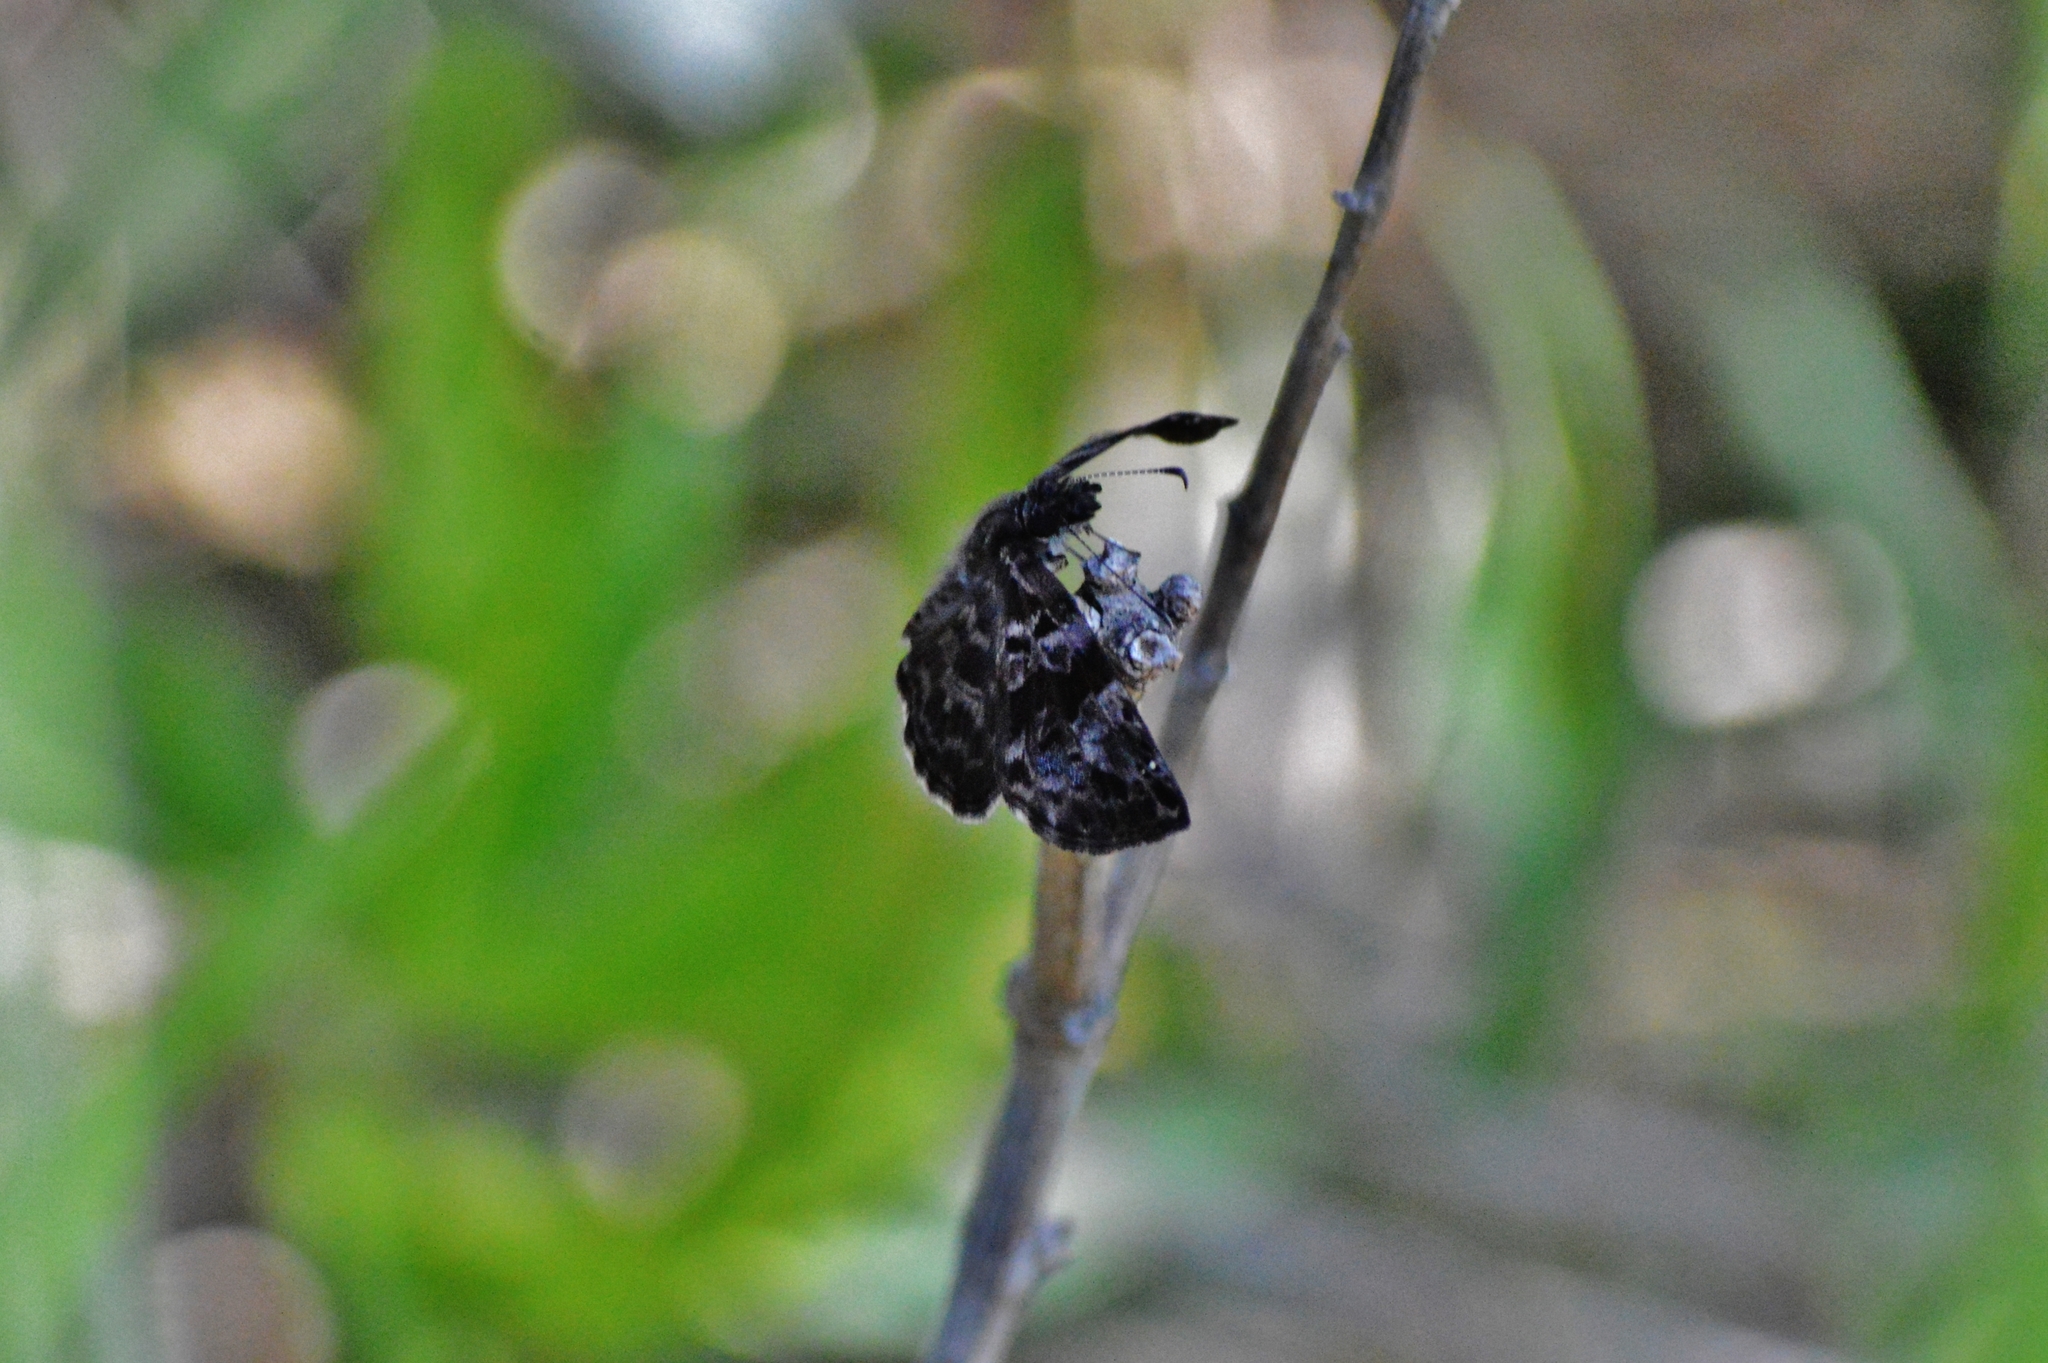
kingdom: Animalia
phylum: Arthropoda
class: Insecta
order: Lepidoptera
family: Hesperiidae
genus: Gorgythion
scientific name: Gorgythion begga
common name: Variegated skipper
